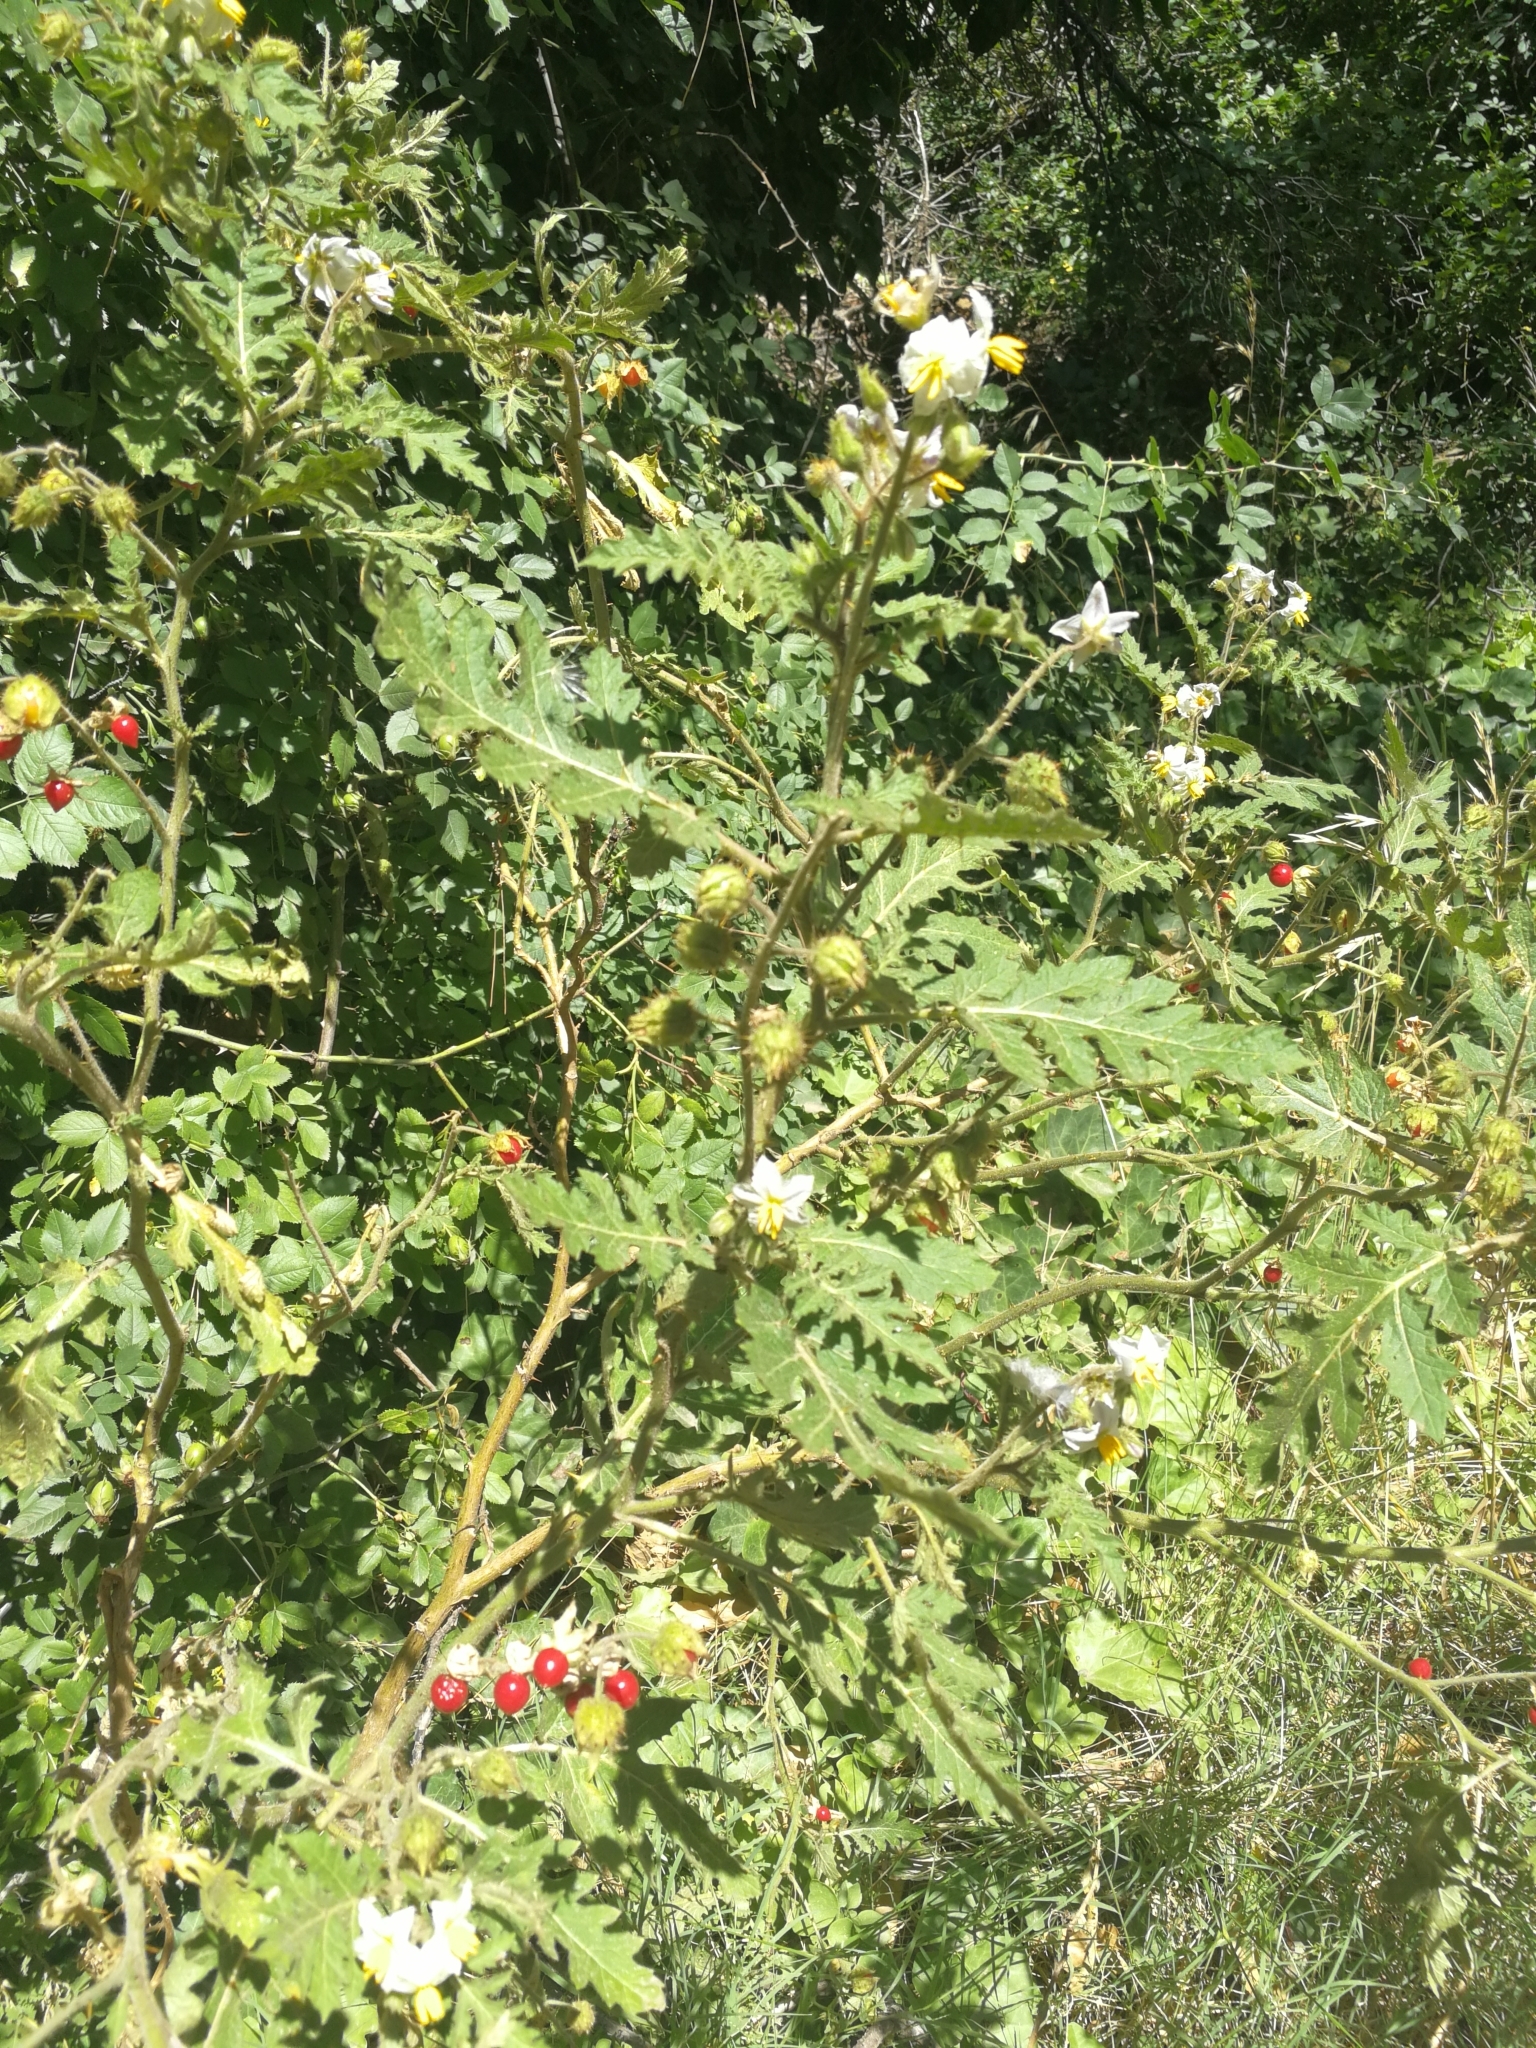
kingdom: Plantae
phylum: Tracheophyta
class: Magnoliopsida
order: Solanales
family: Solanaceae
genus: Solanum
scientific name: Solanum sisymbriifolium
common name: Red buffalo-bur
